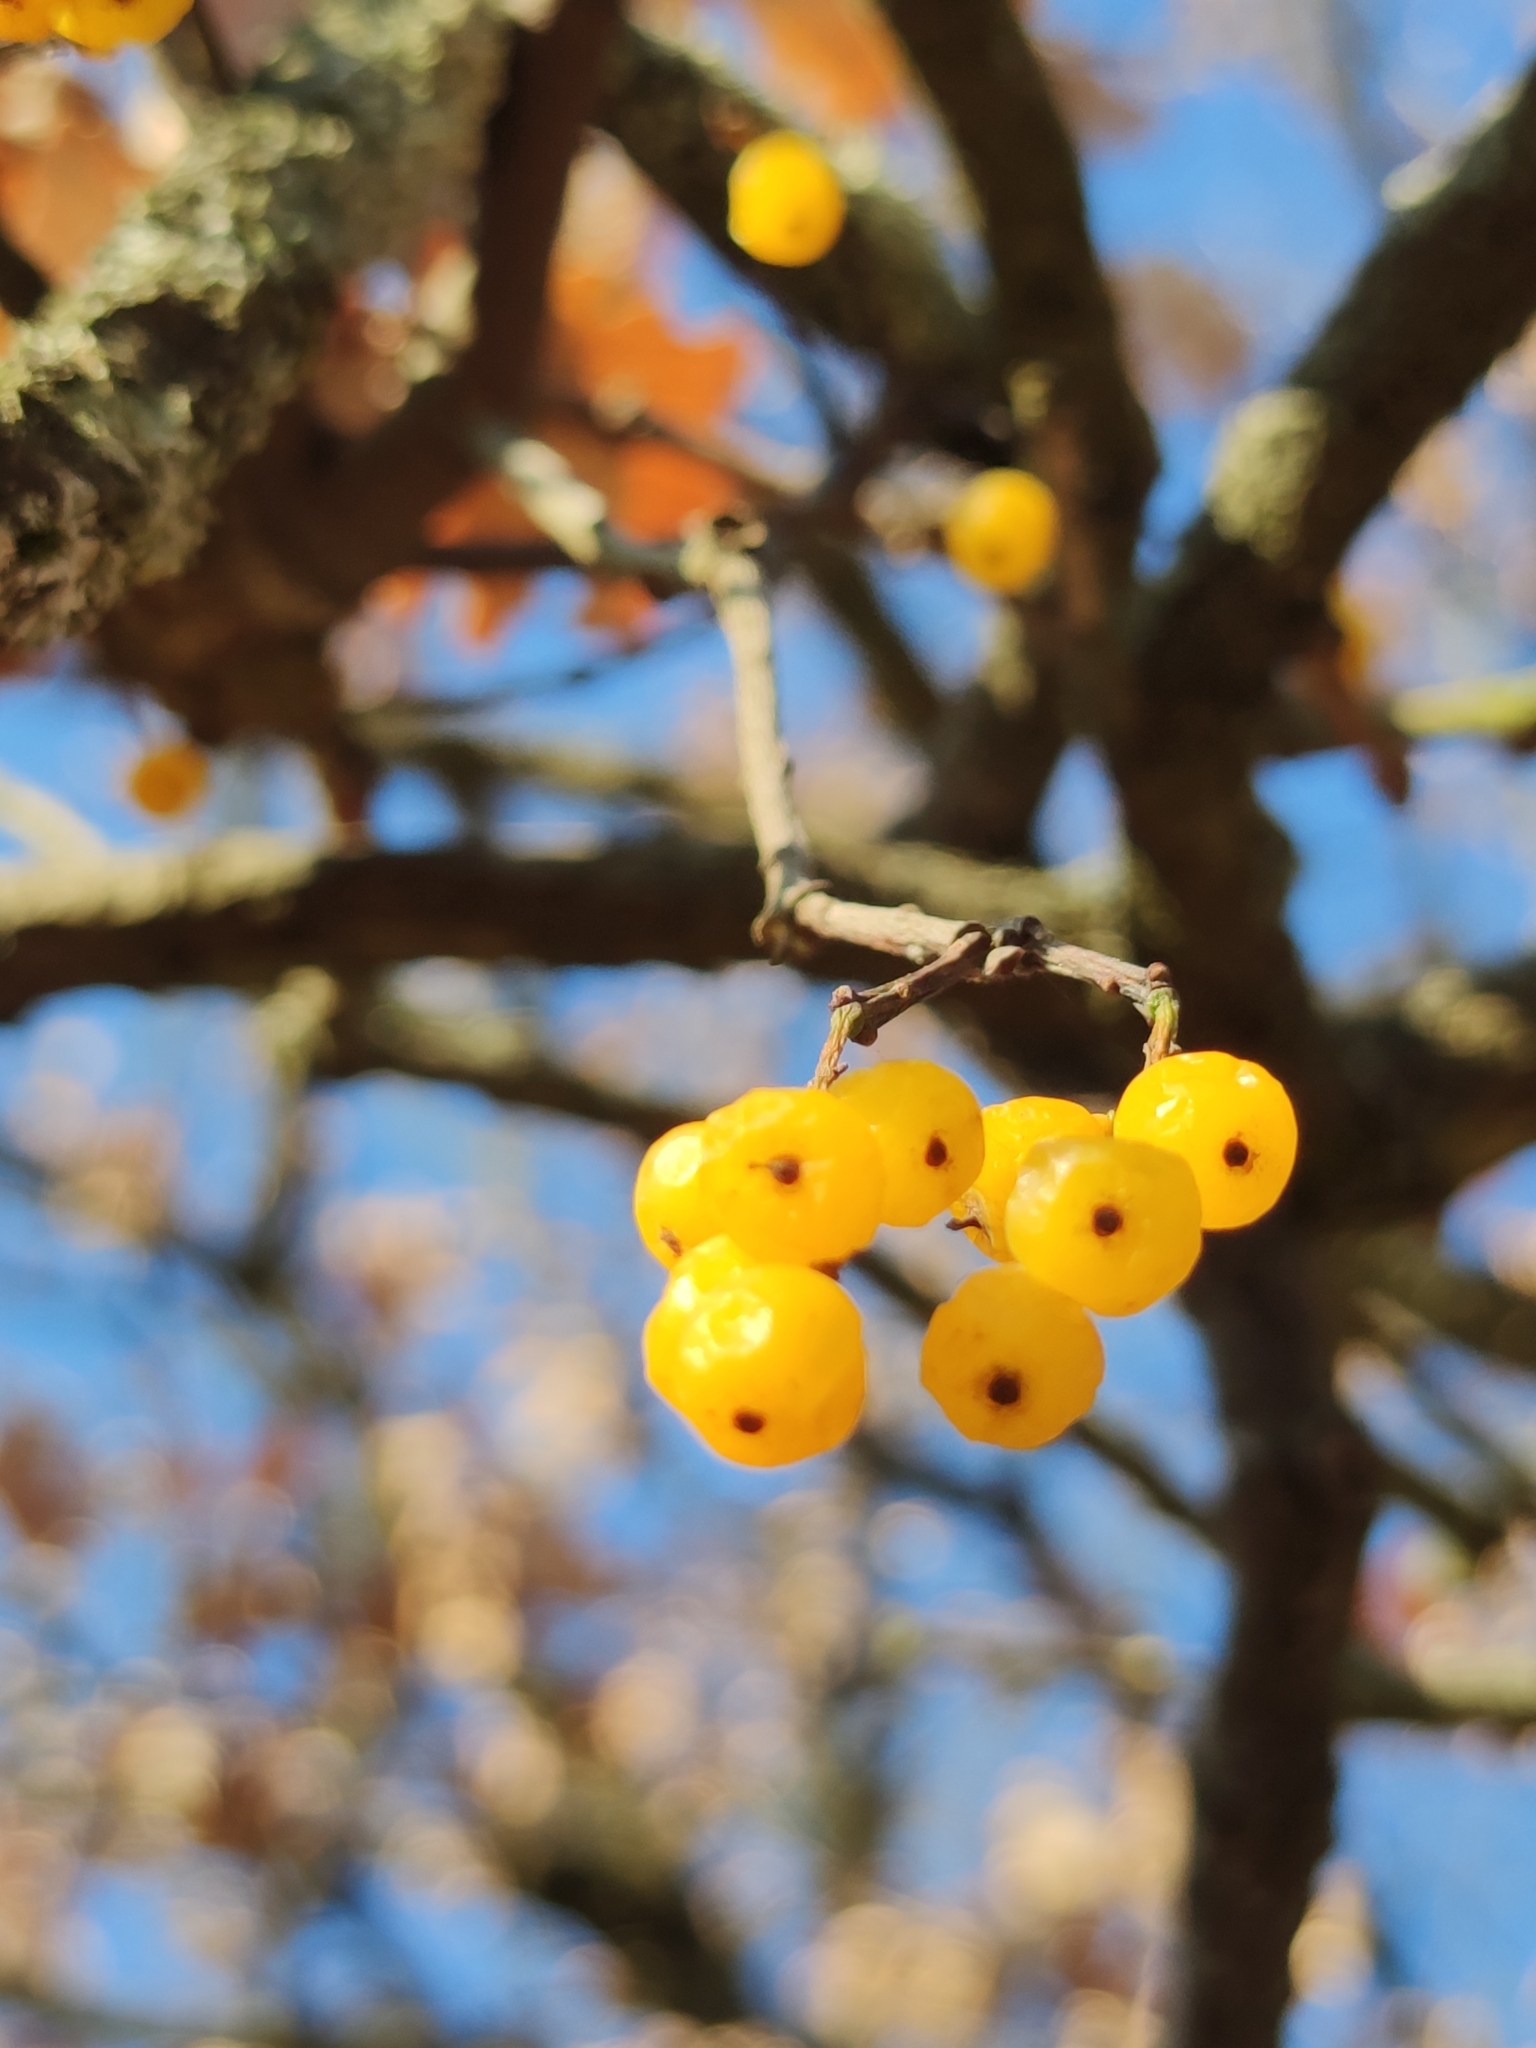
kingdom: Plantae
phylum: Tracheophyta
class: Magnoliopsida
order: Santalales
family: Loranthaceae
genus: Loranthus
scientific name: Loranthus europaeus
